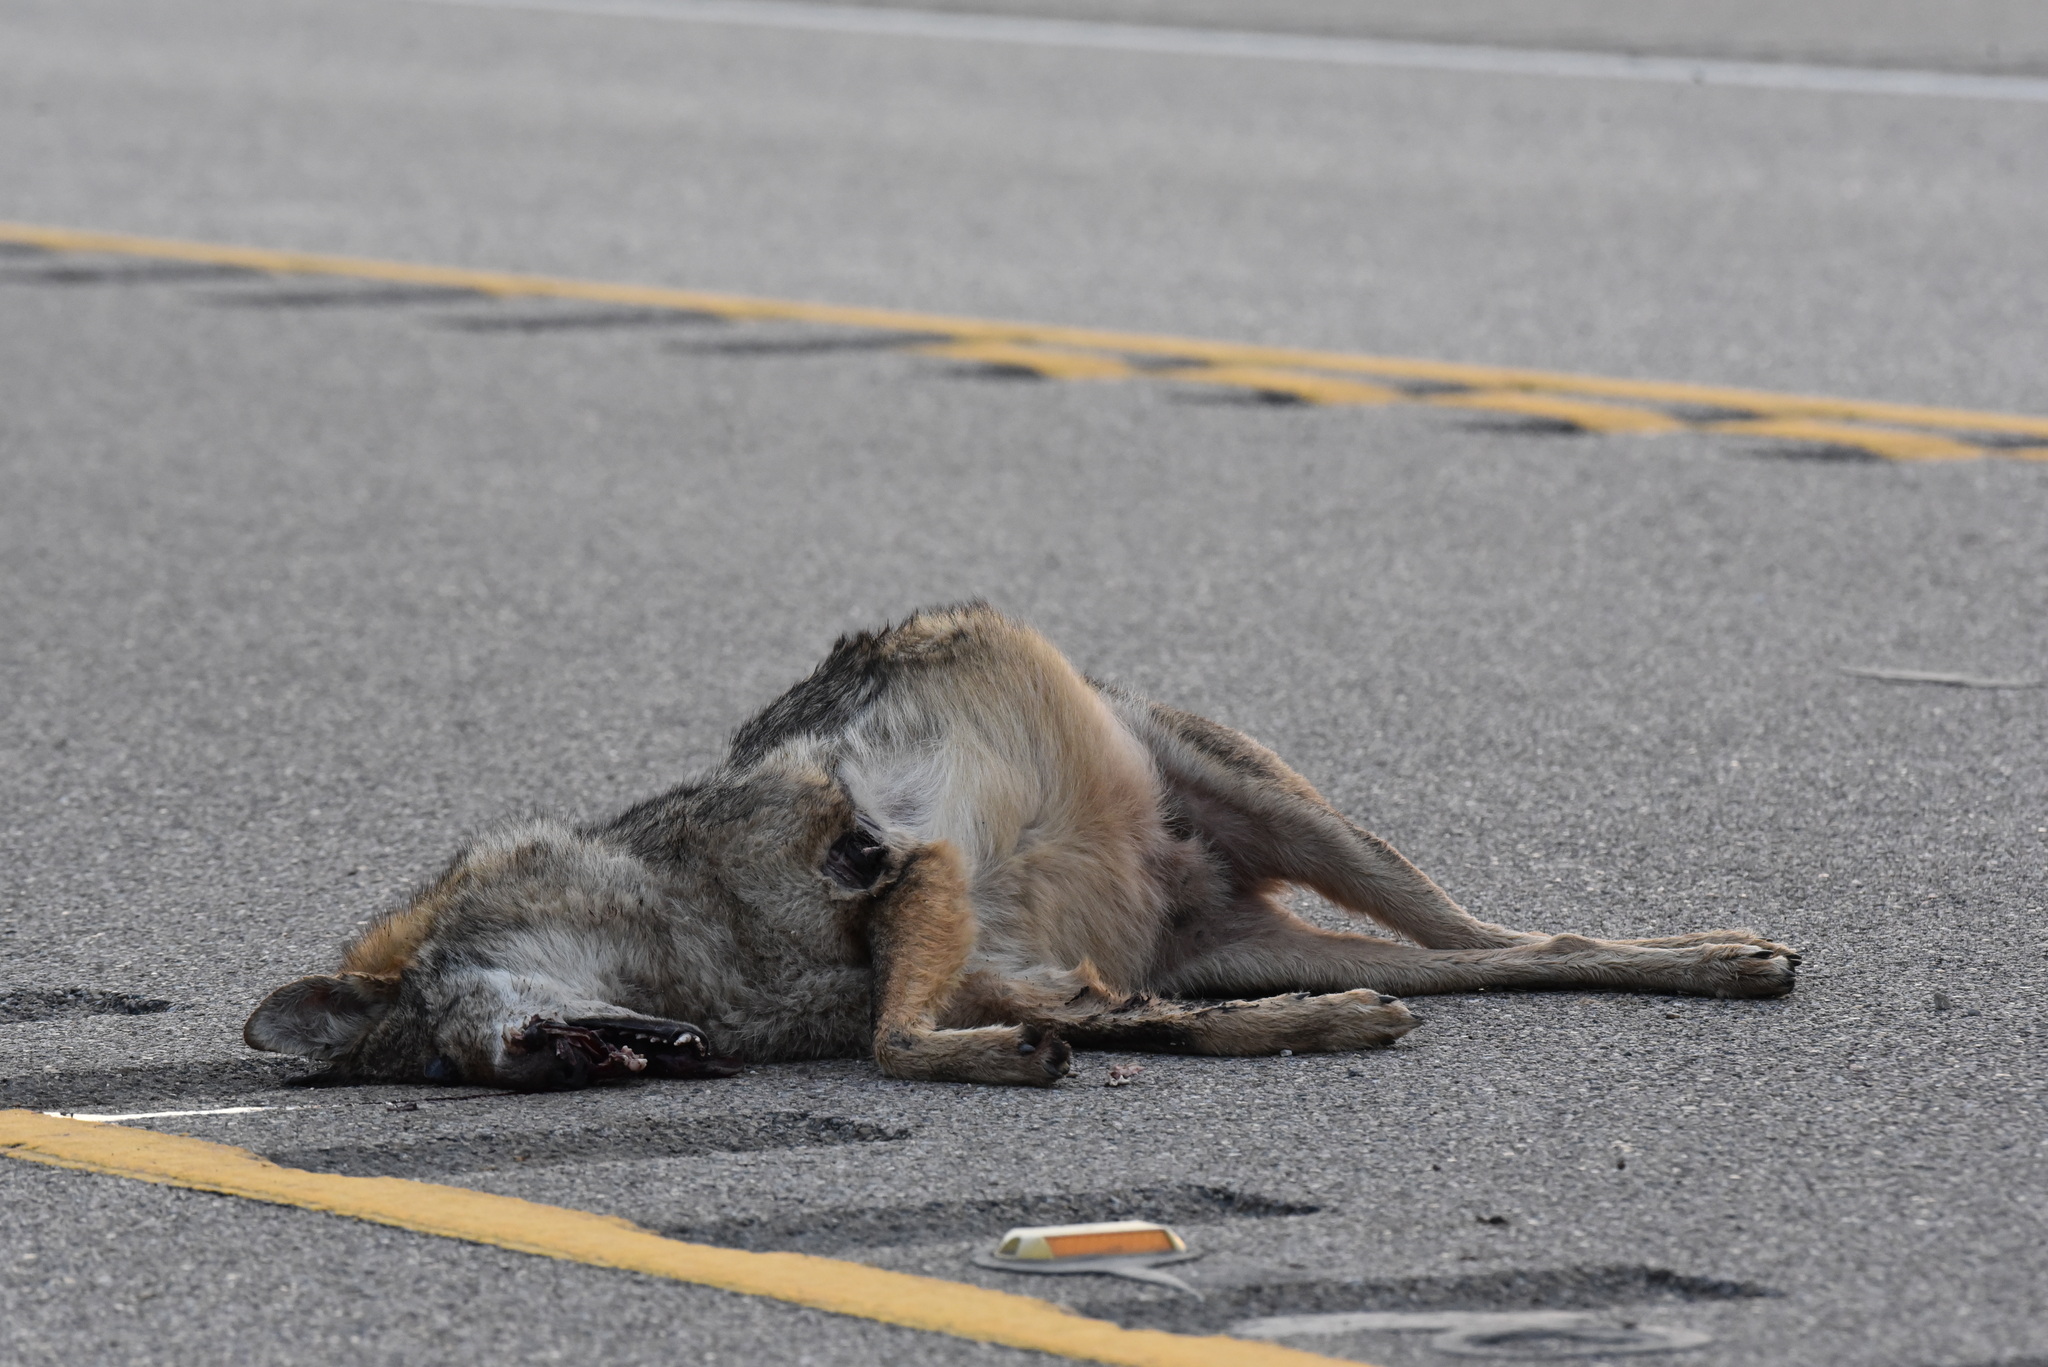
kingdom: Animalia
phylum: Chordata
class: Mammalia
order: Carnivora
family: Canidae
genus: Canis
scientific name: Canis latrans
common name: Coyote
